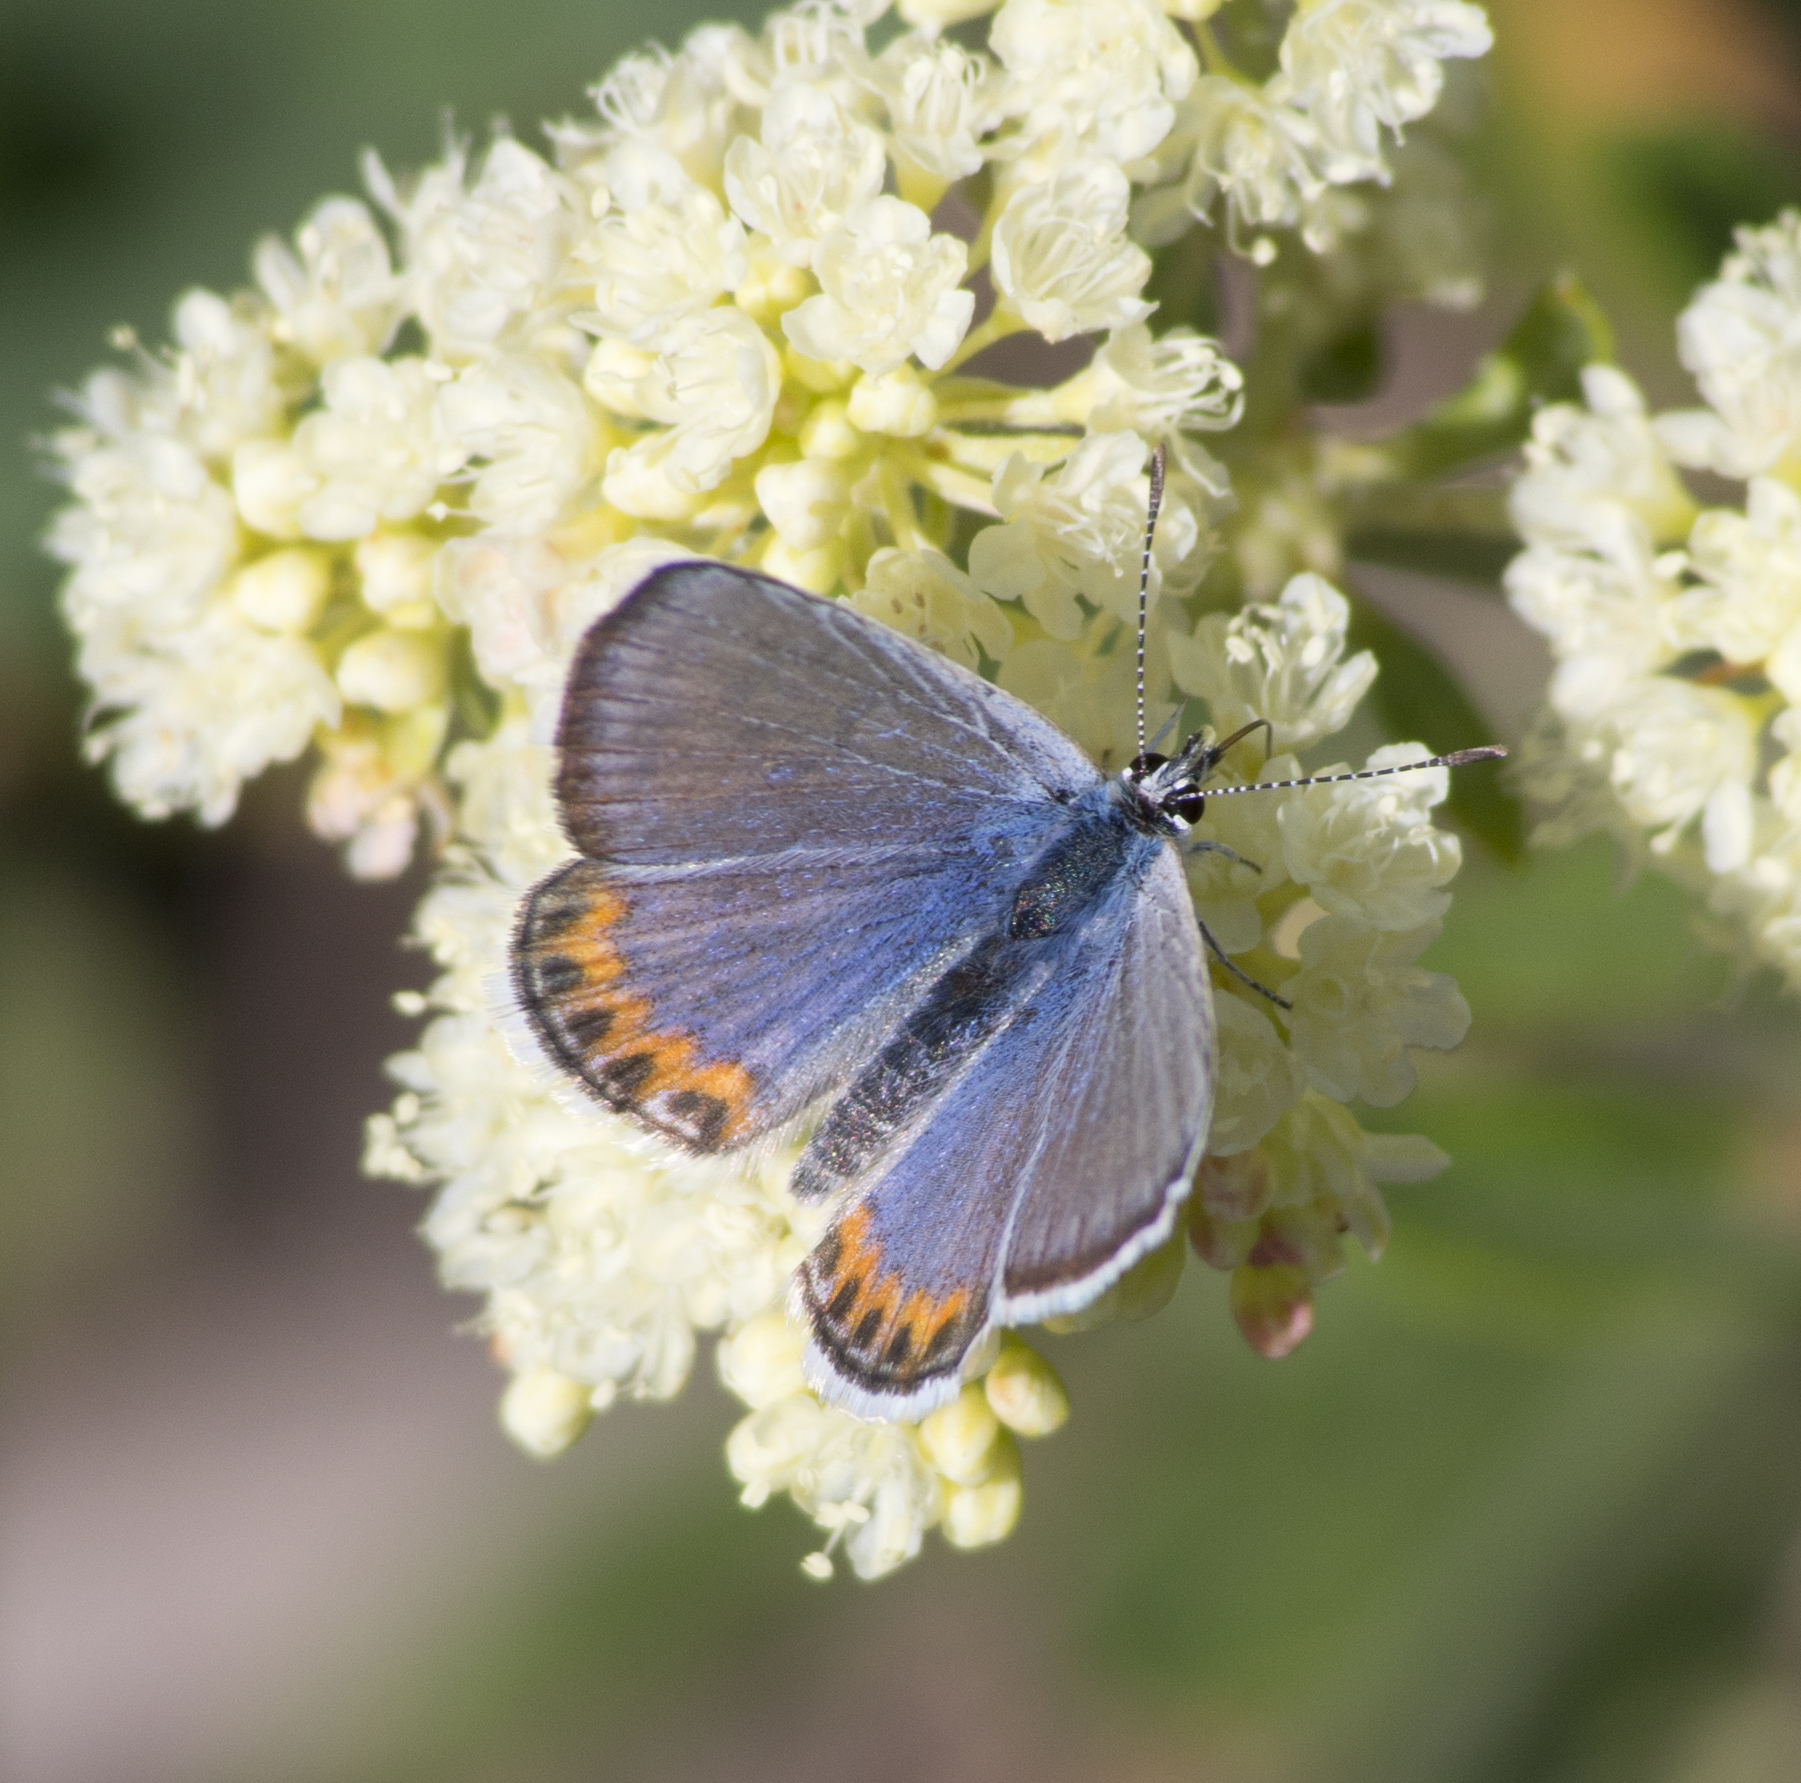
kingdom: Animalia
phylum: Arthropoda
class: Insecta
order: Lepidoptera
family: Lycaenidae
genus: Icaricia
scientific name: Icaricia lupini
